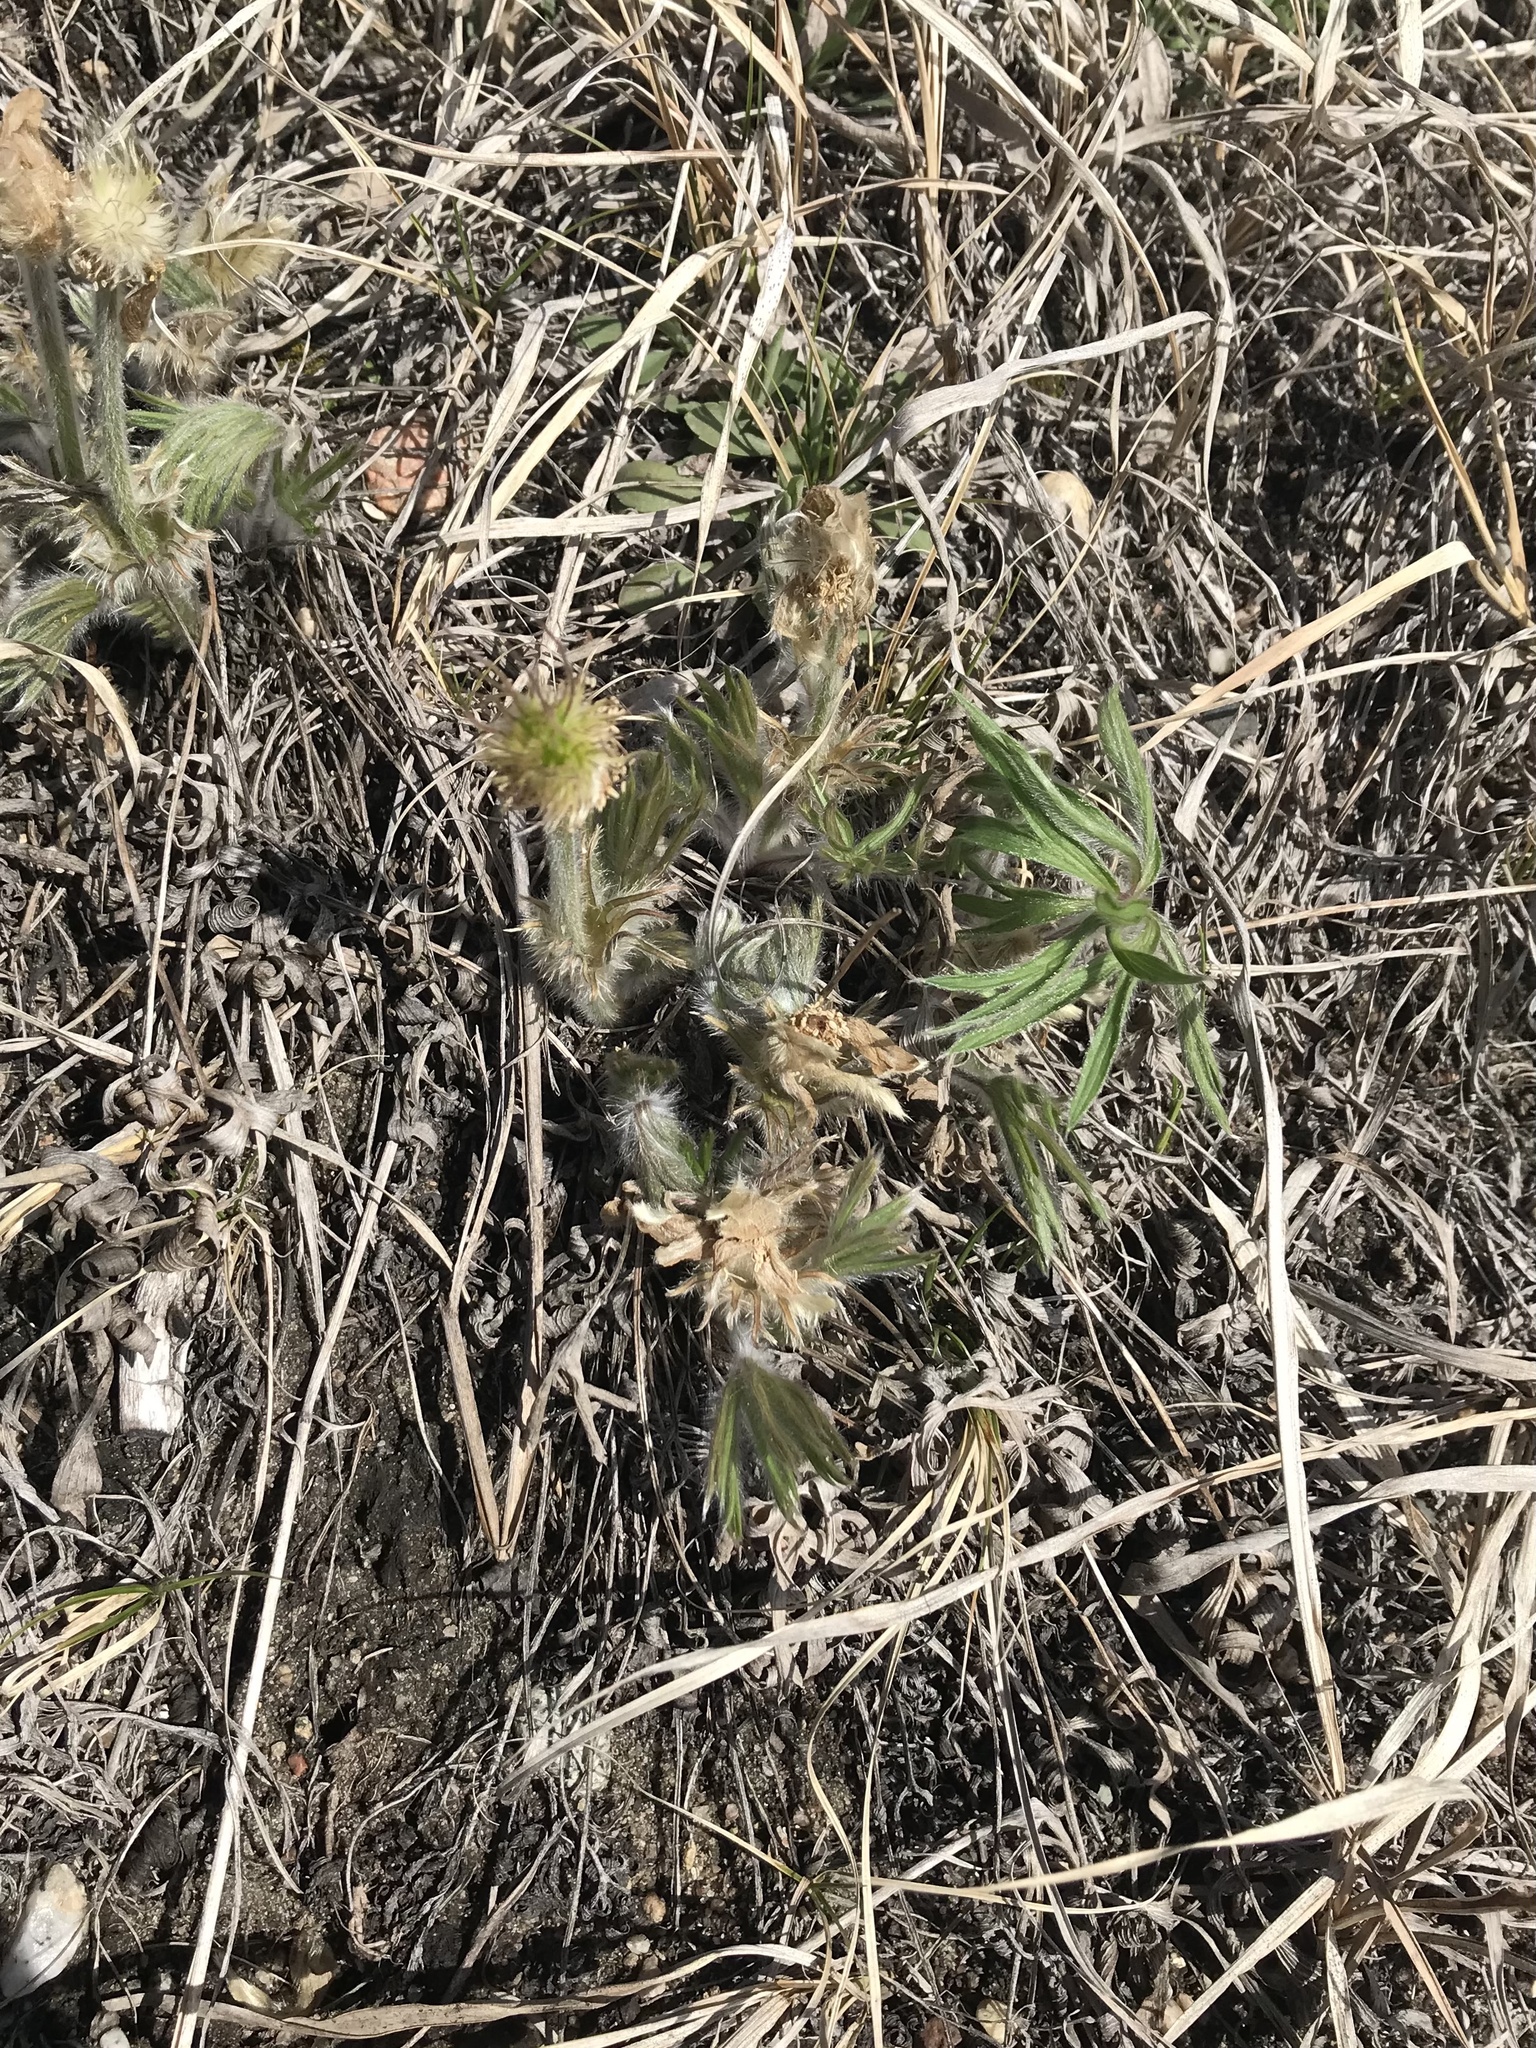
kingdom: Plantae
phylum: Tracheophyta
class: Magnoliopsida
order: Ranunculales
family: Ranunculaceae
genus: Pulsatilla
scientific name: Pulsatilla nuttalliana
